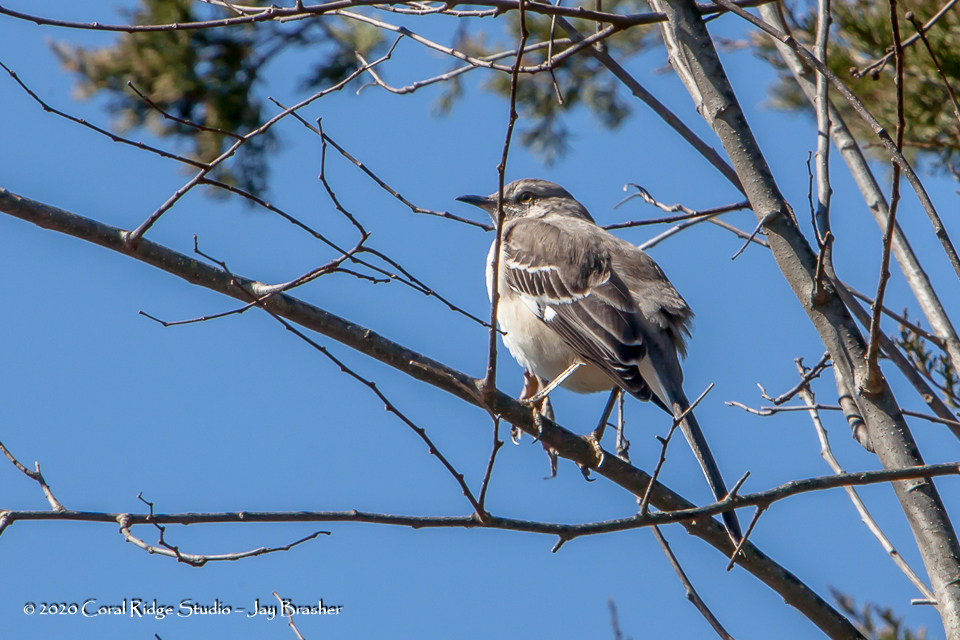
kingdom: Animalia
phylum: Chordata
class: Aves
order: Passeriformes
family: Mimidae
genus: Mimus
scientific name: Mimus polyglottos
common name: Northern mockingbird
